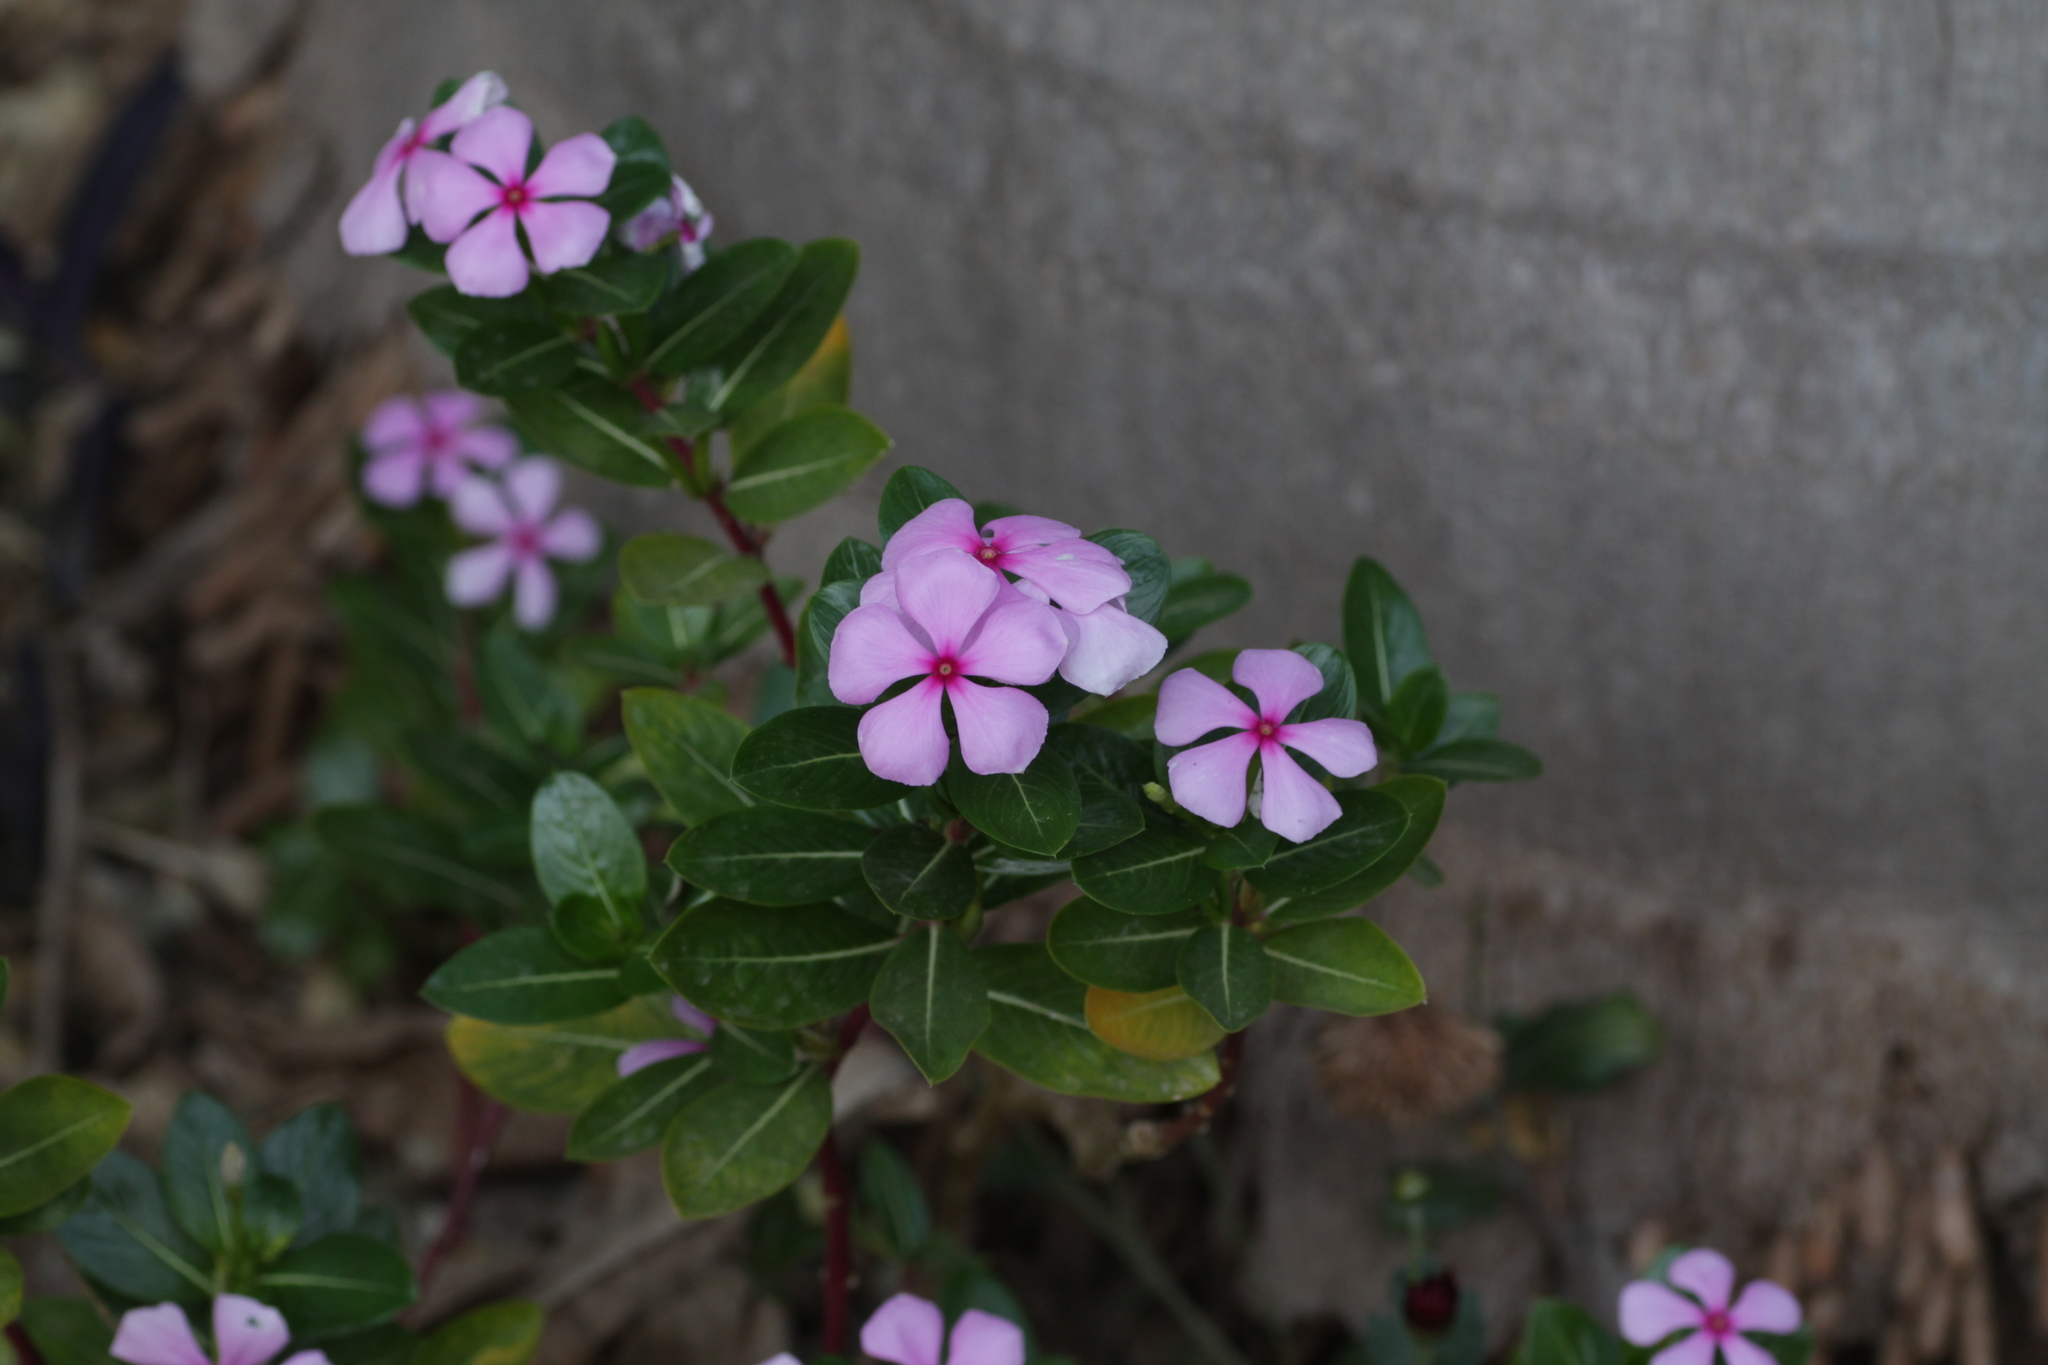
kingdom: Plantae
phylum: Tracheophyta
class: Magnoliopsida
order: Gentianales
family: Apocynaceae
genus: Catharanthus
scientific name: Catharanthus roseus
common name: Madagascar periwinkle
